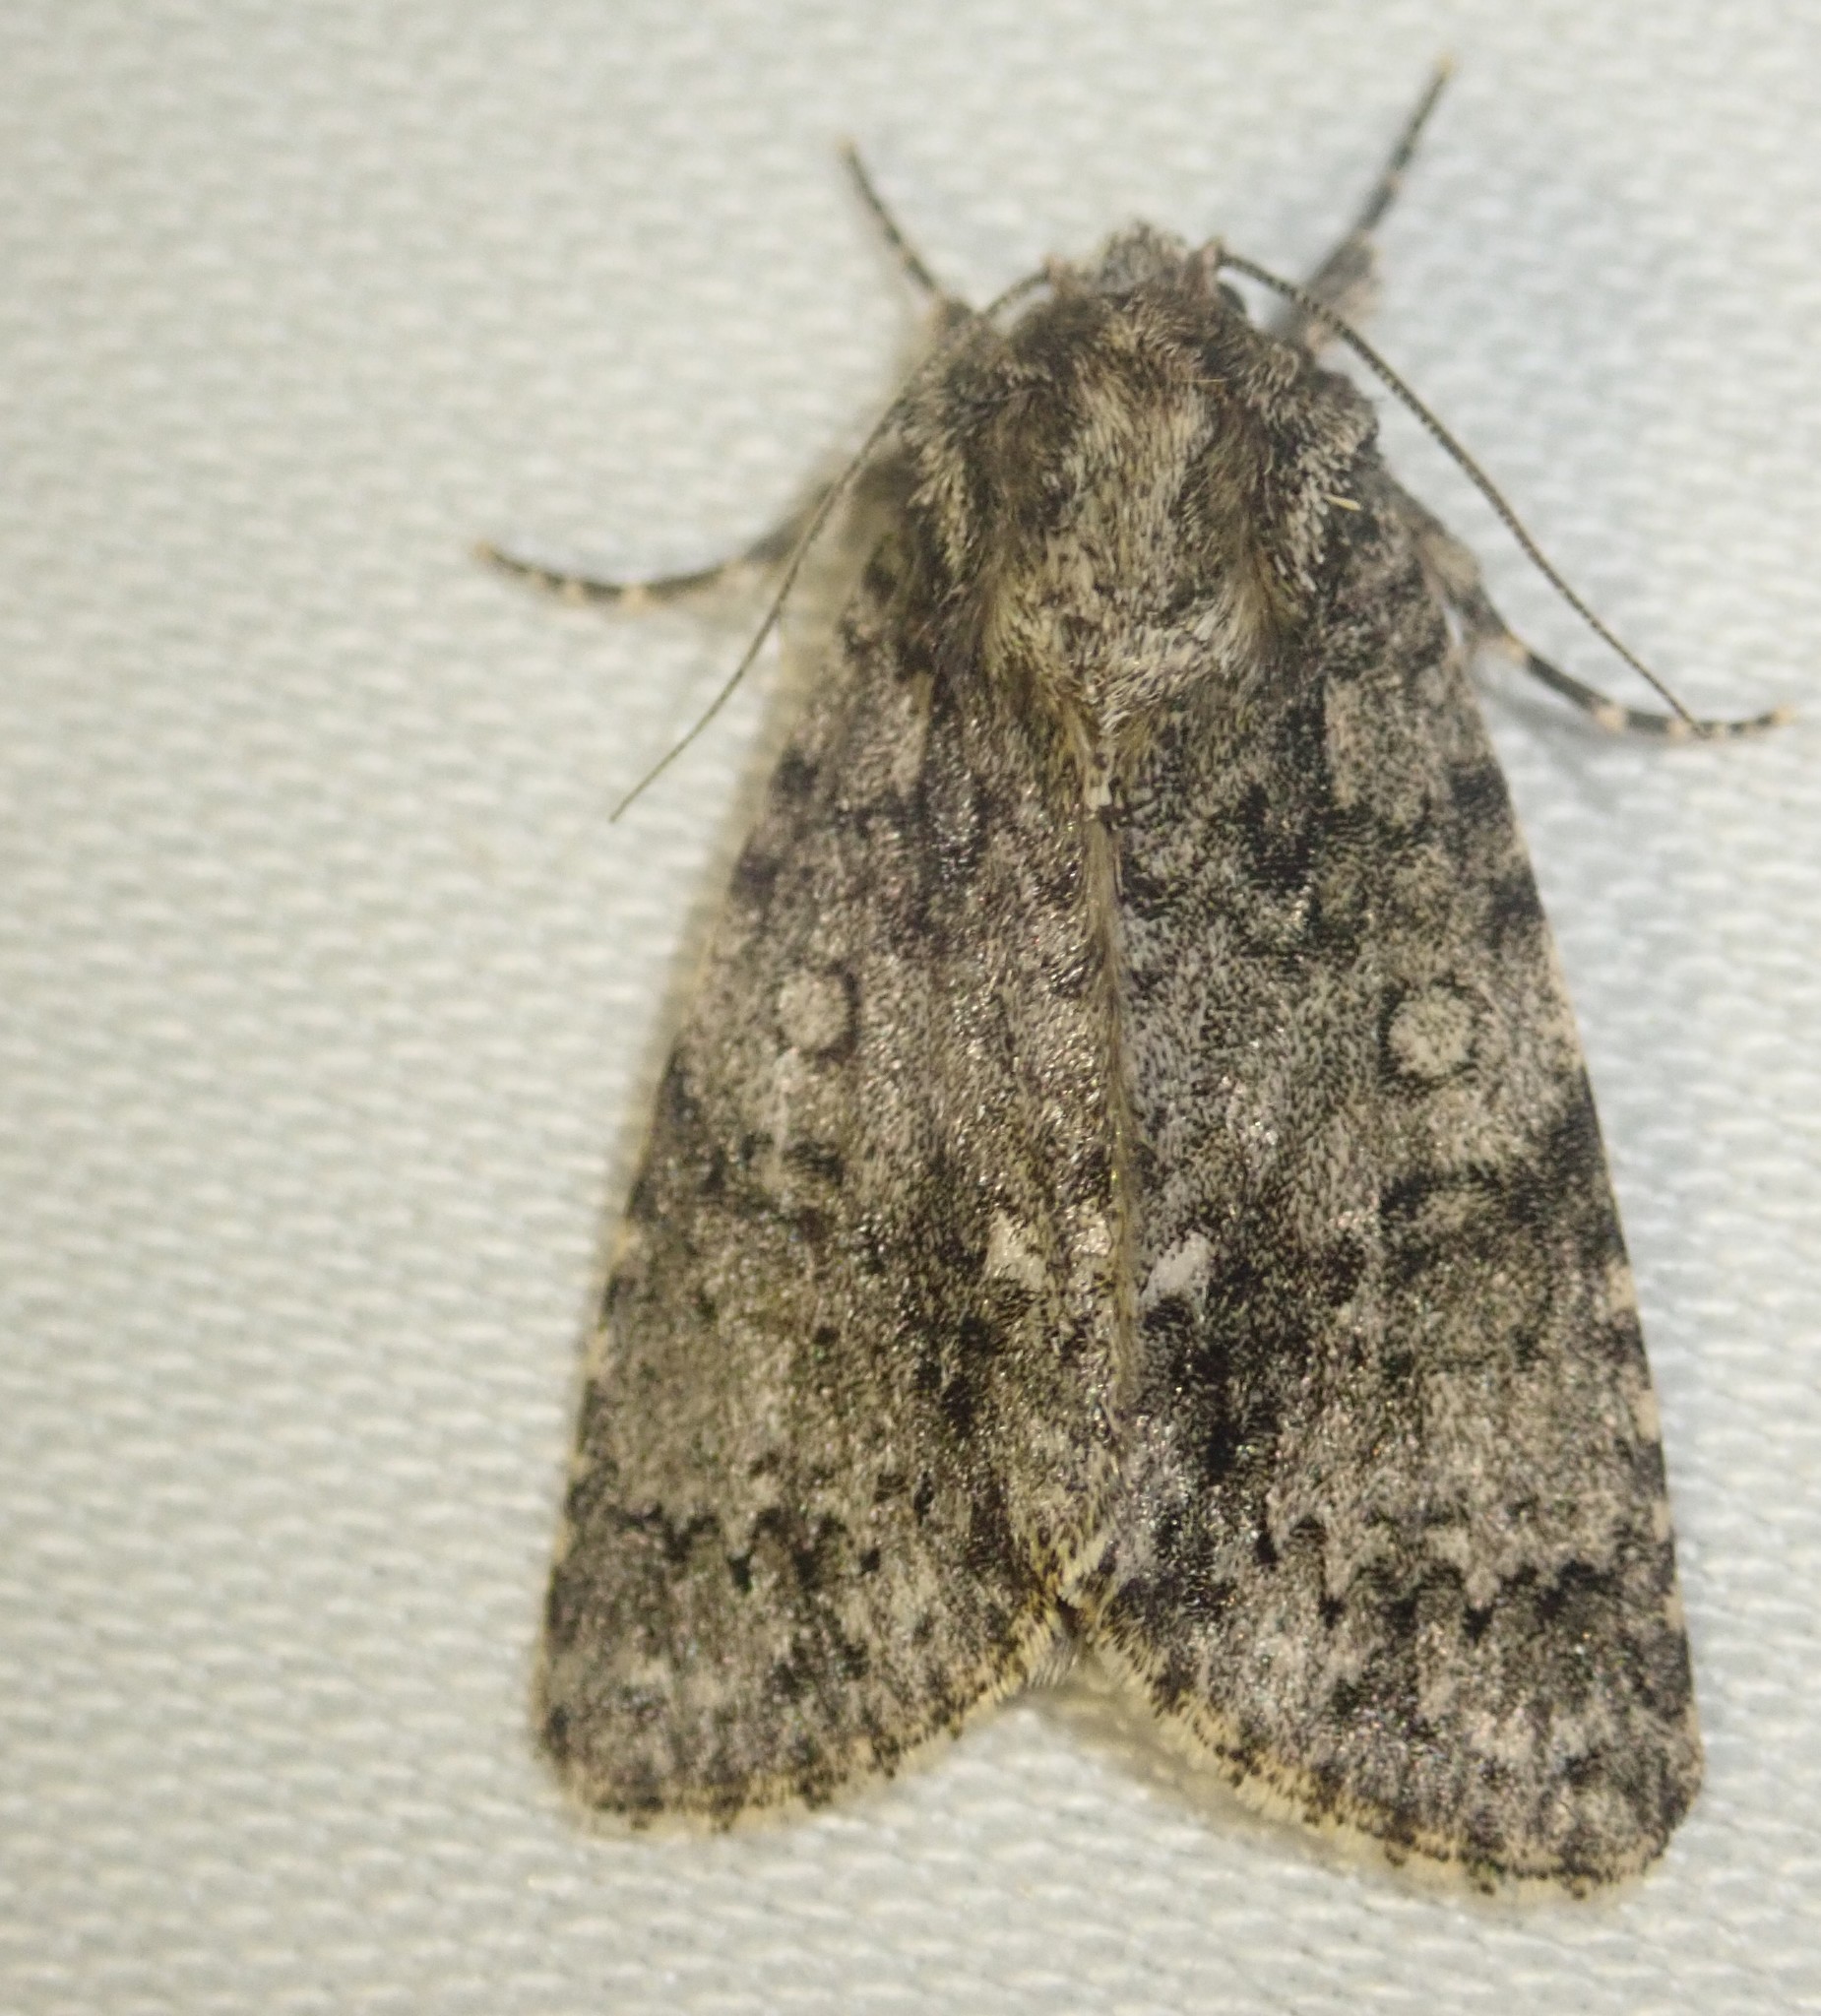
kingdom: Animalia
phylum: Arthropoda
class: Insecta
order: Lepidoptera
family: Noctuidae
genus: Acronicta
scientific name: Acronicta rumicis
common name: Knot grass
